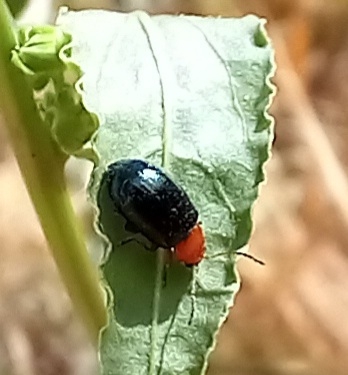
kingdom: Animalia
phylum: Arthropoda
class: Insecta
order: Coleoptera
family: Chrysomelidae
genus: Podagrica
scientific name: Podagrica fuscipes
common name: Mallow flea beetle
